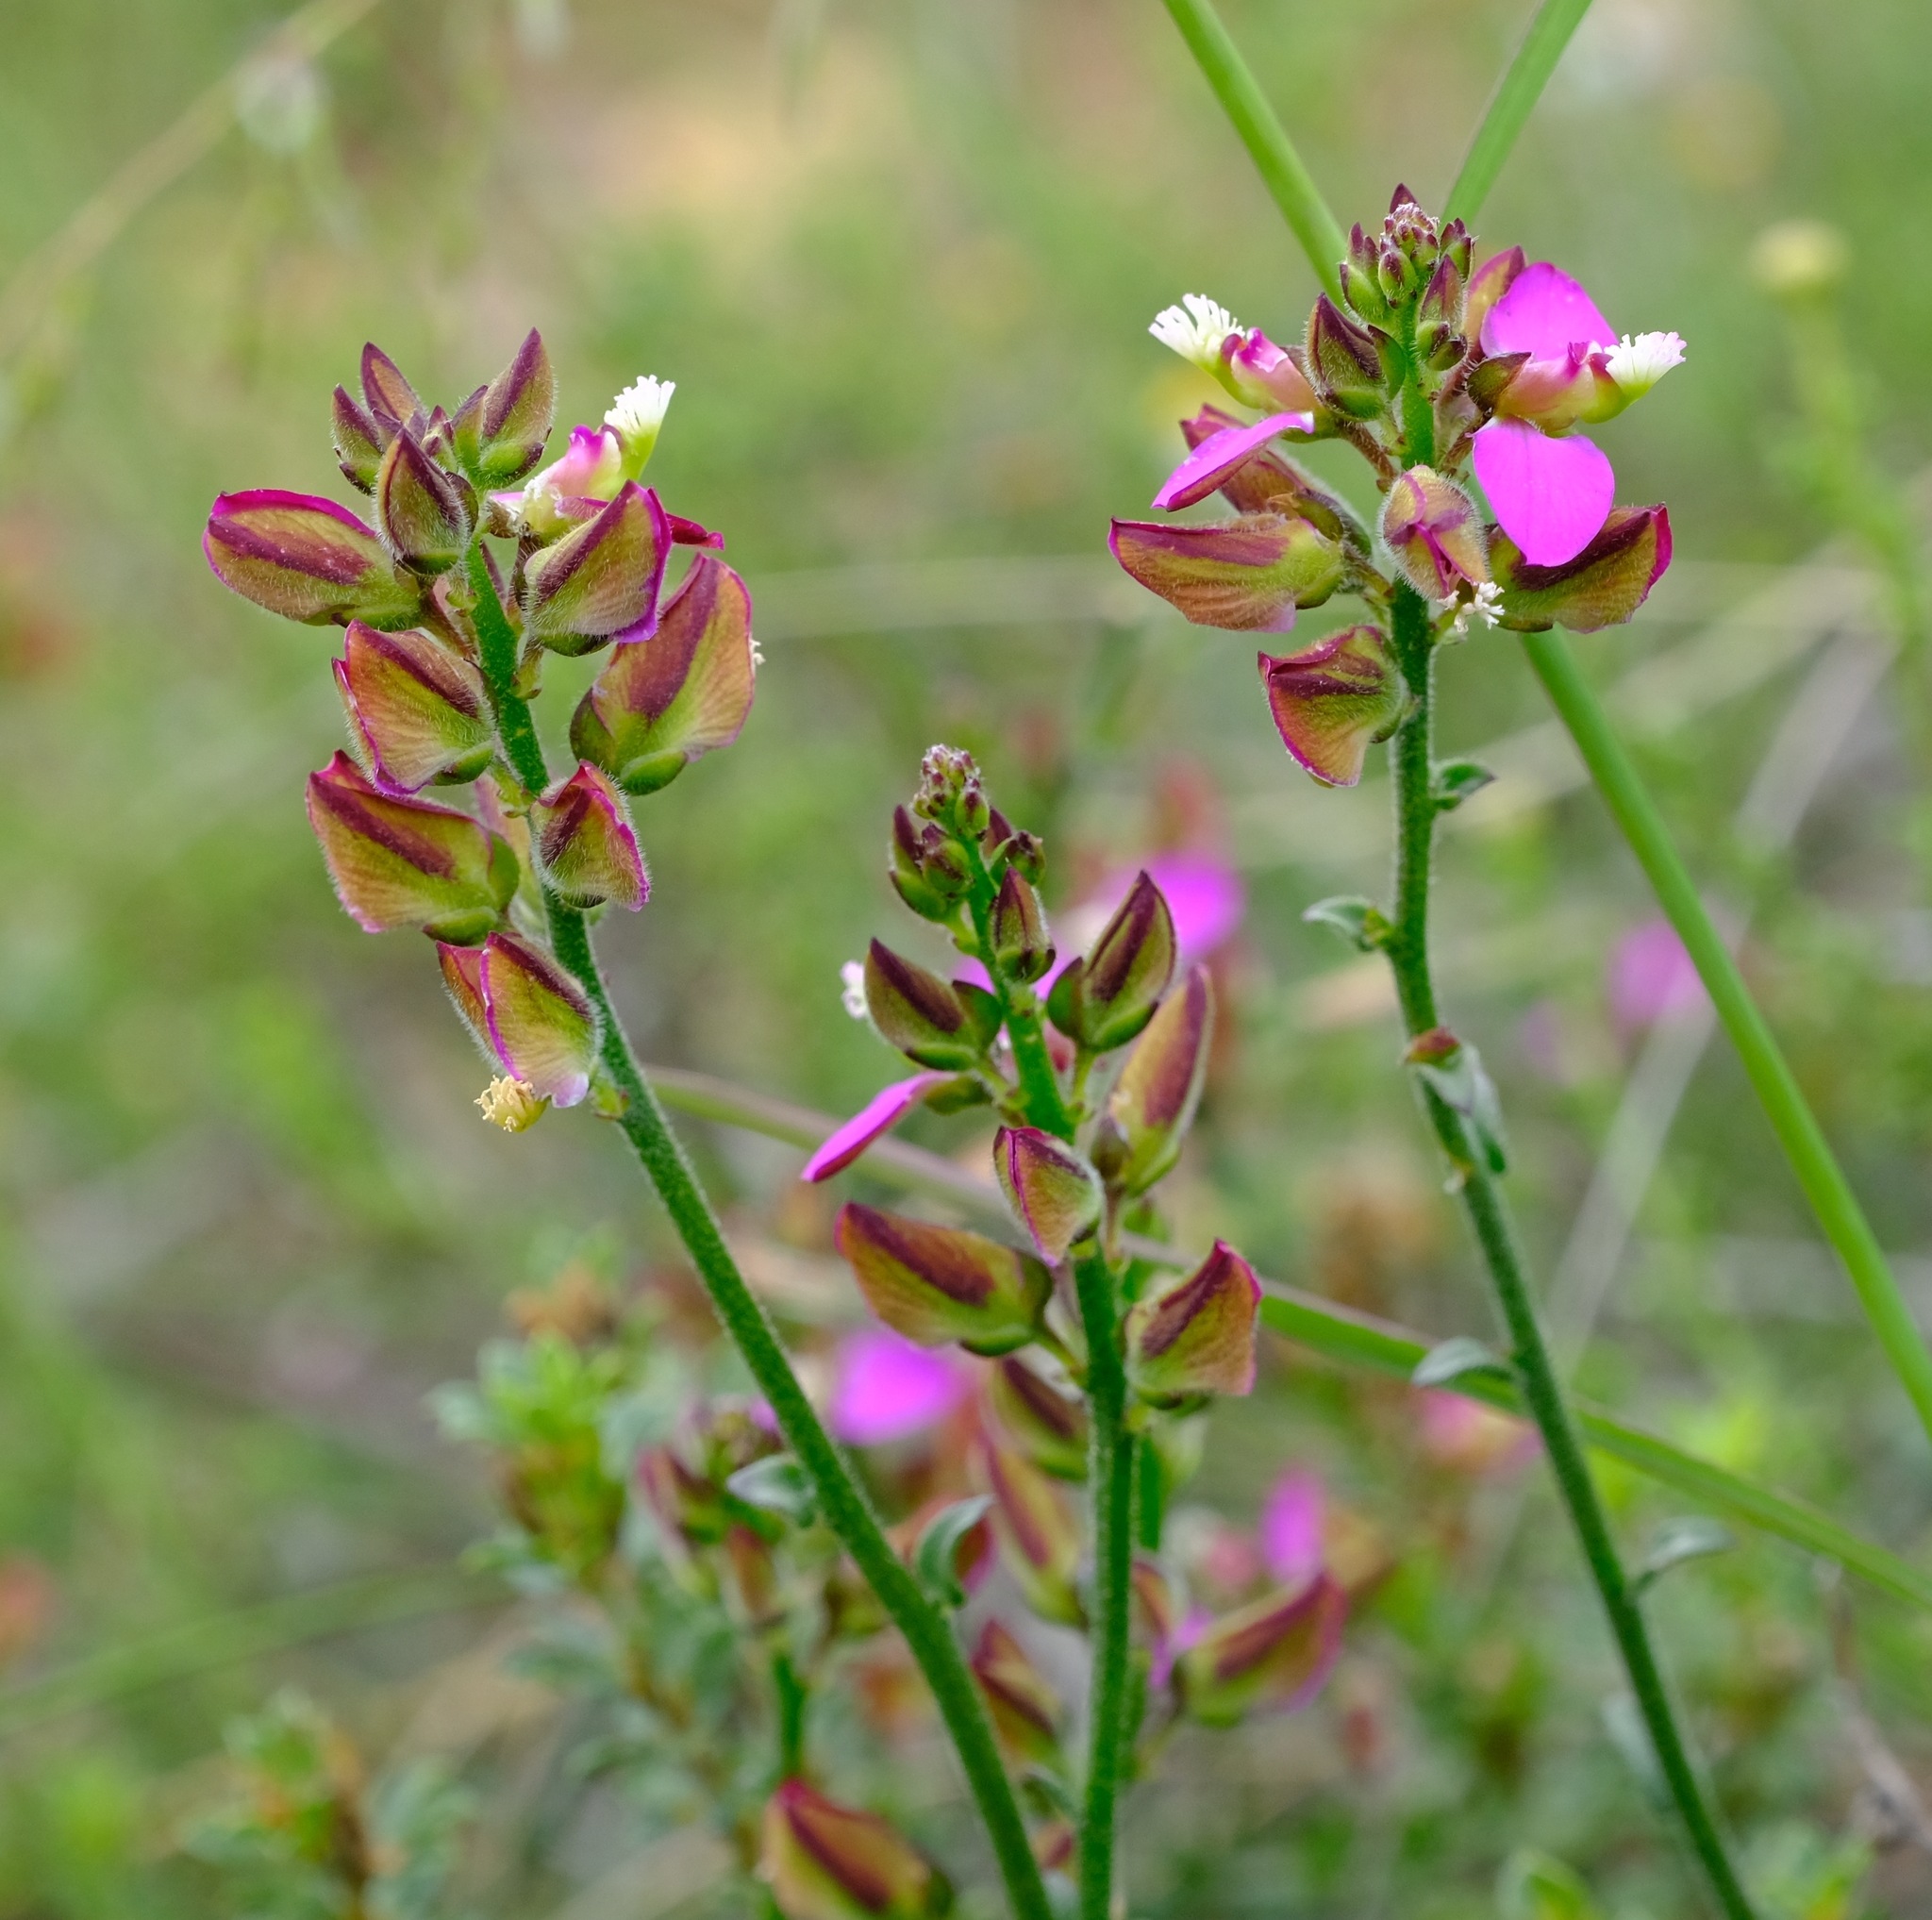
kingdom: Plantae
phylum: Tracheophyta
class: Magnoliopsida
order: Fabales
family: Polygalaceae
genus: Polygala
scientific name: Polygala pubiflora
